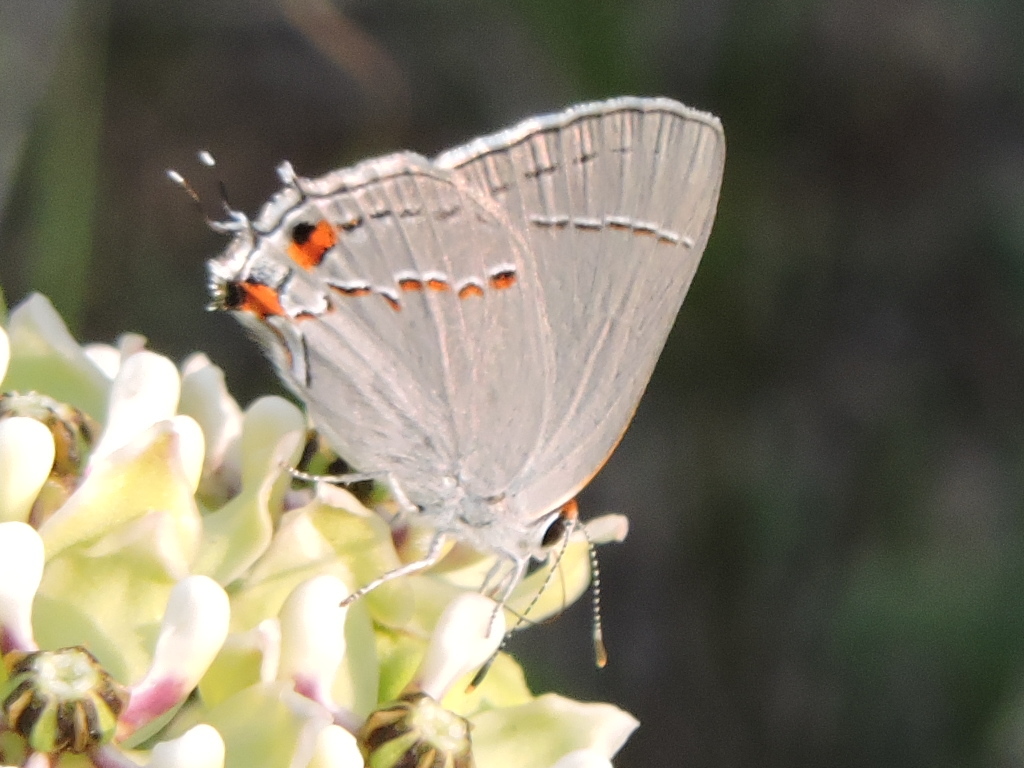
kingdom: Animalia
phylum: Arthropoda
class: Insecta
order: Lepidoptera
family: Lycaenidae
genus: Strymon
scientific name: Strymon melinus
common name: Gray hairstreak
